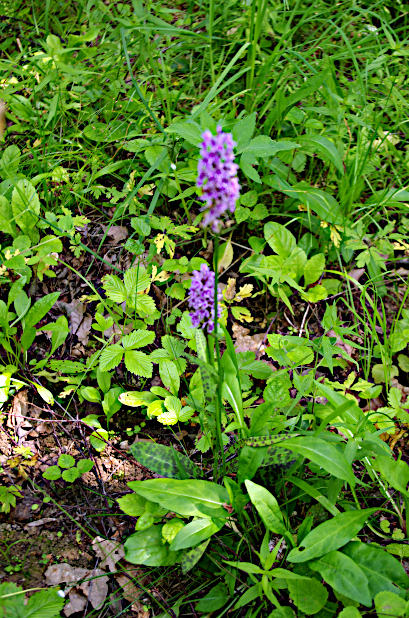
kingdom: Plantae
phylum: Tracheophyta
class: Liliopsida
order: Asparagales
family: Orchidaceae
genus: Dactylorhiza
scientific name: Dactylorhiza maculata
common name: Heath spotted-orchid
